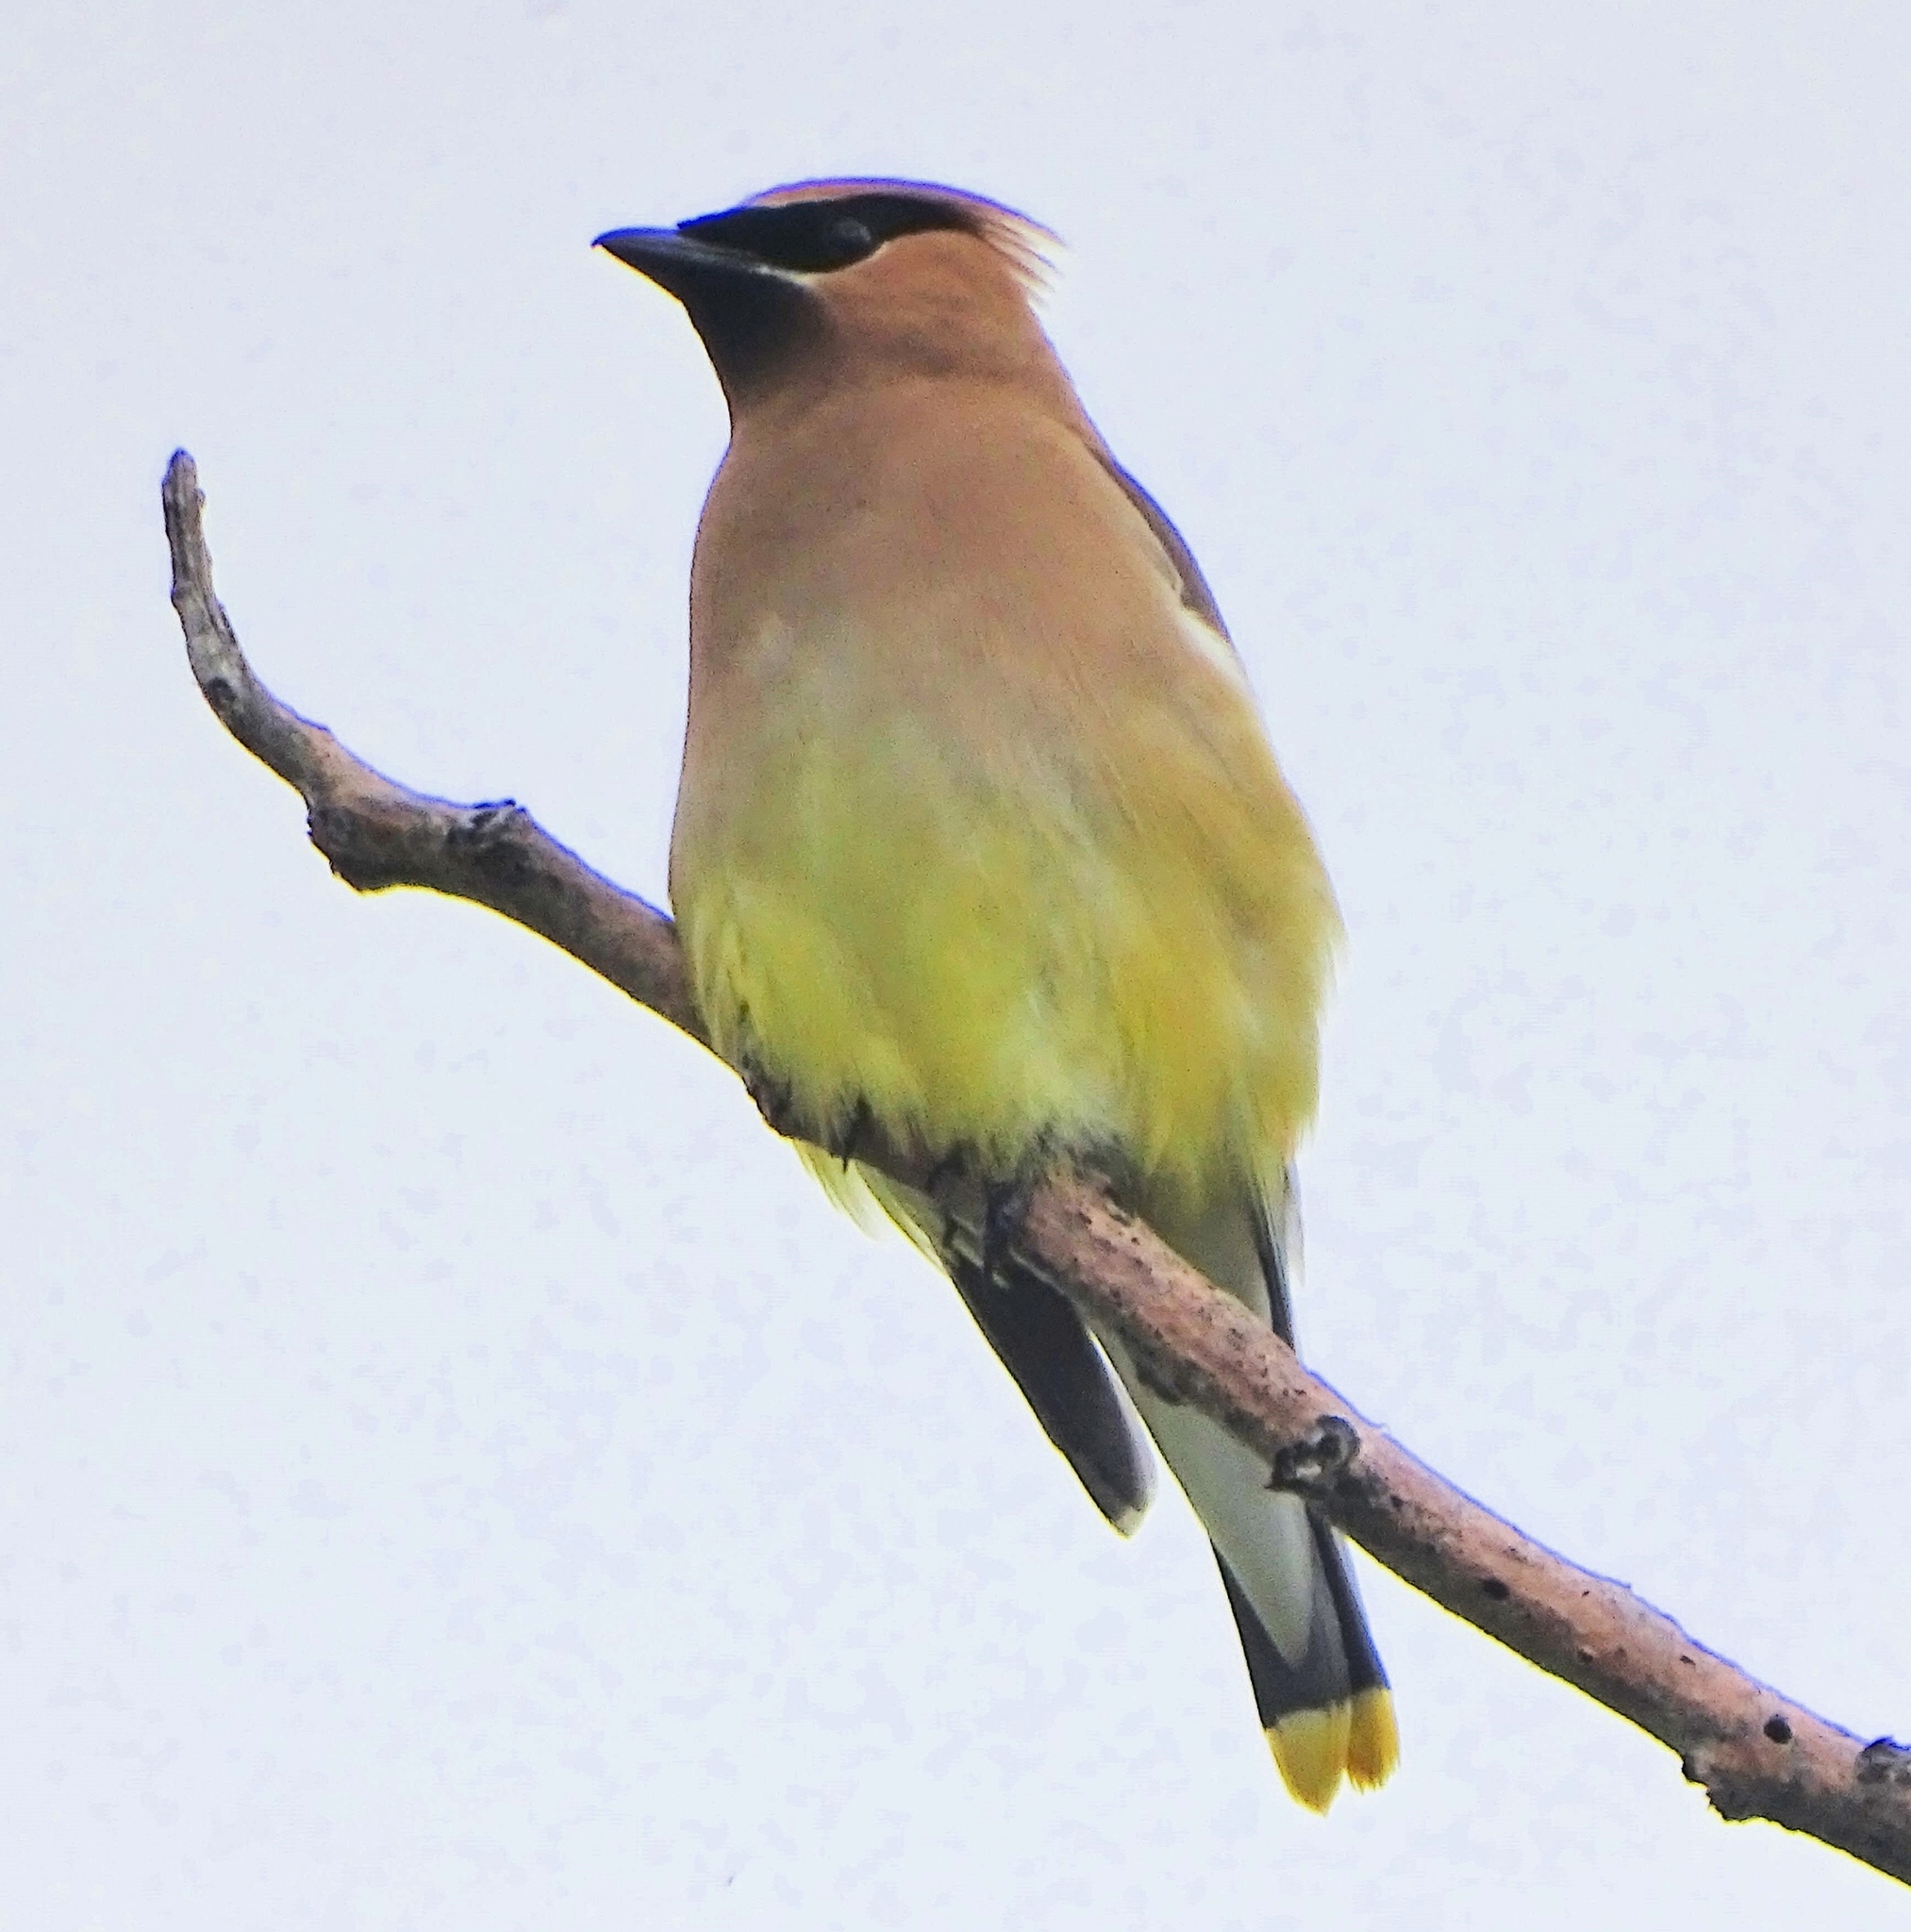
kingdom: Animalia
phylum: Chordata
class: Aves
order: Passeriformes
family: Bombycillidae
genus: Bombycilla
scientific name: Bombycilla cedrorum
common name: Cedar waxwing
